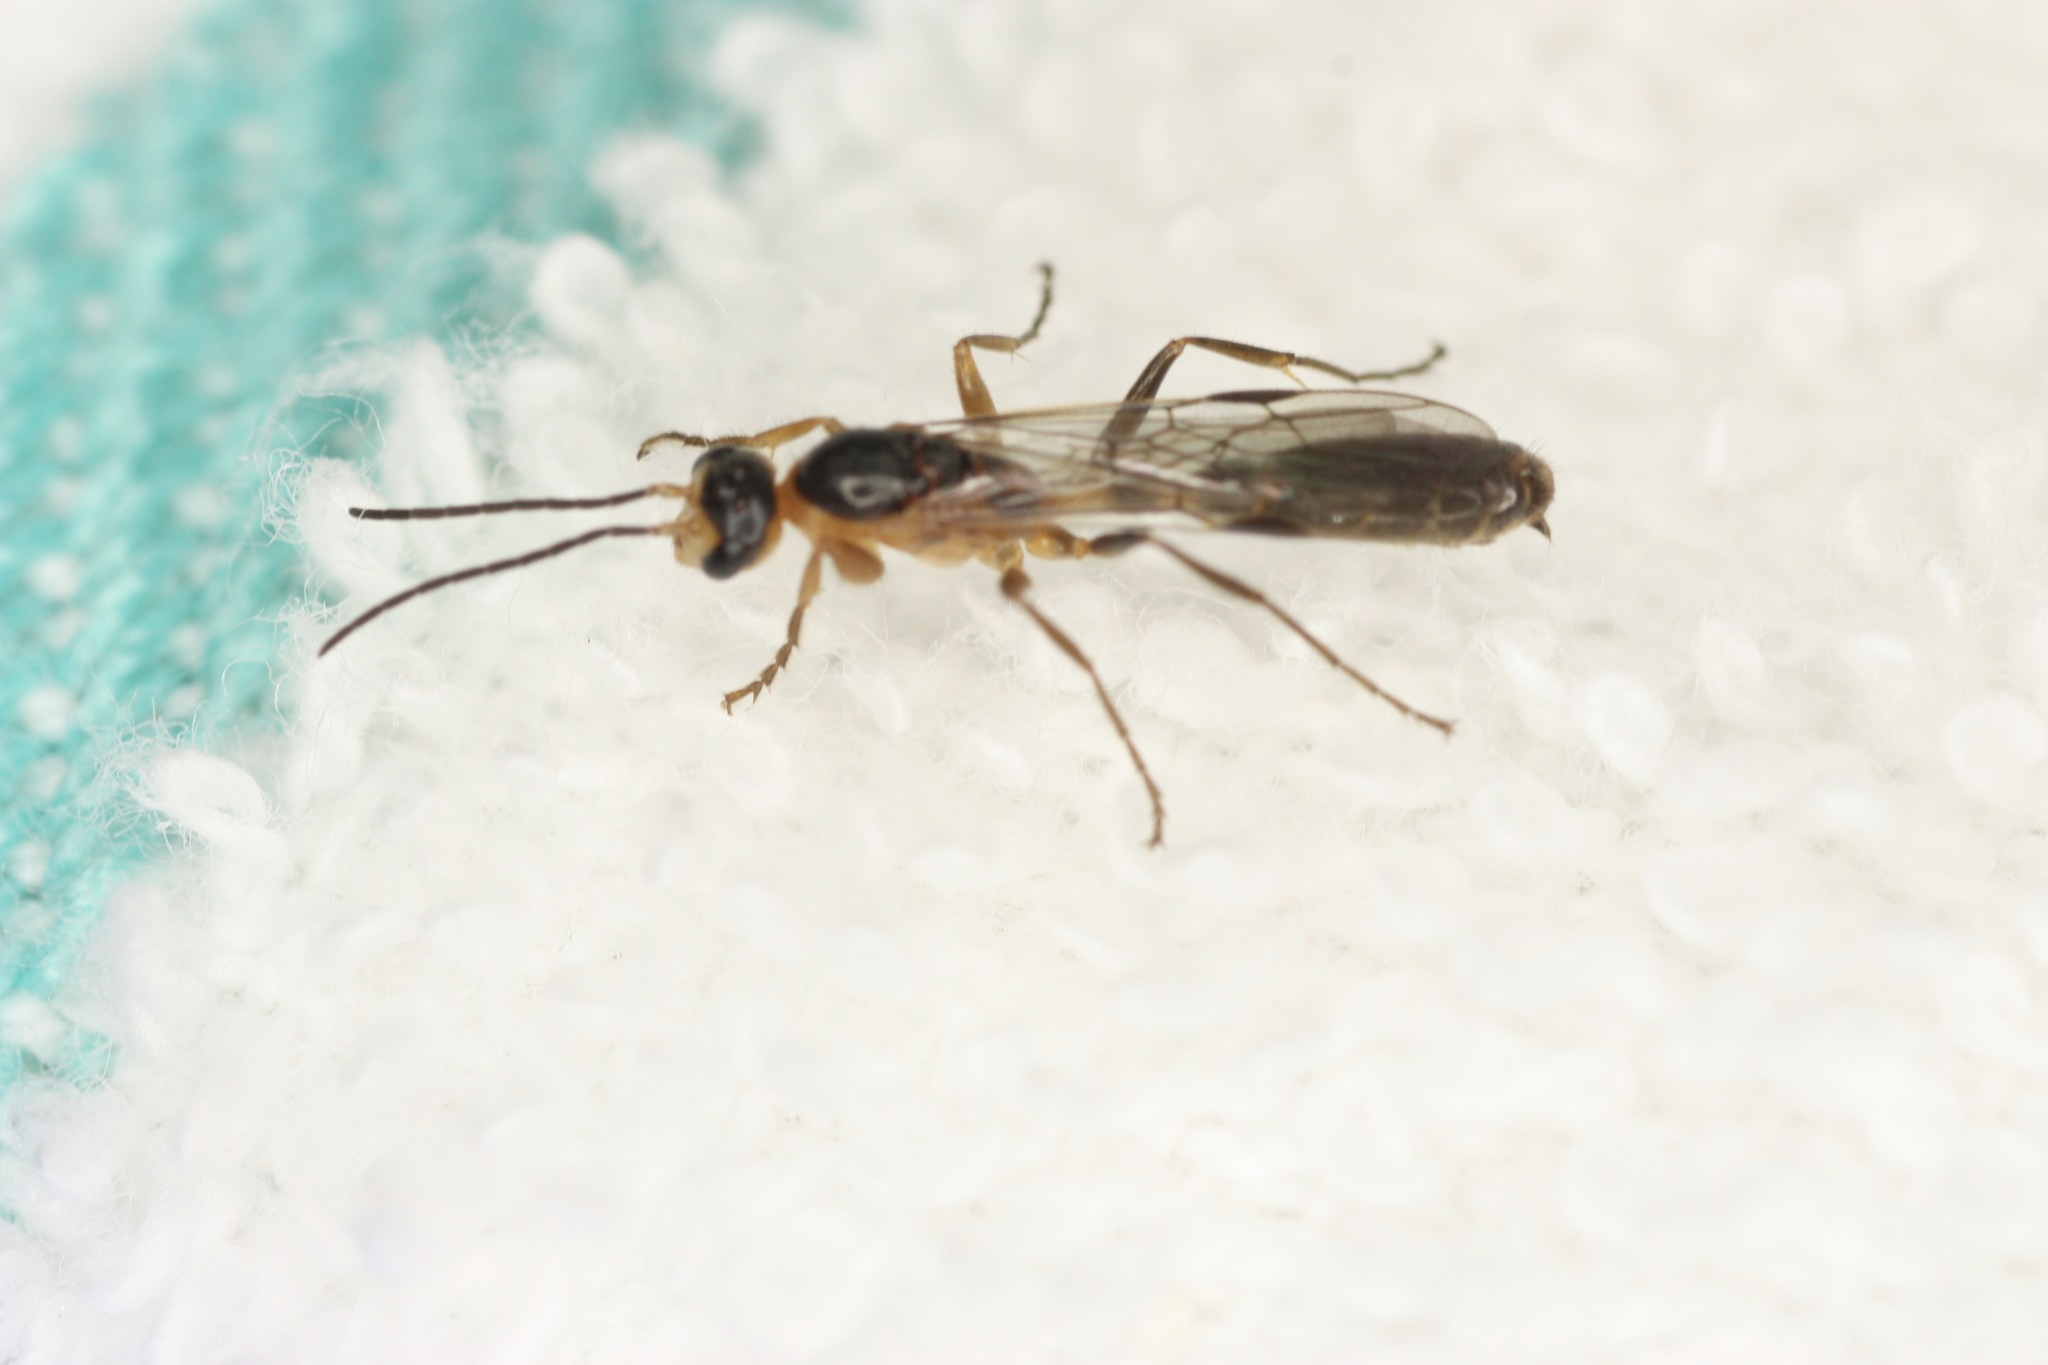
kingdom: Animalia
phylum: Arthropoda
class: Insecta
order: Hymenoptera
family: Formicidae
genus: Pseudomyrmex
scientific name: Pseudomyrmex gracilis
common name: Graceful twig ant
